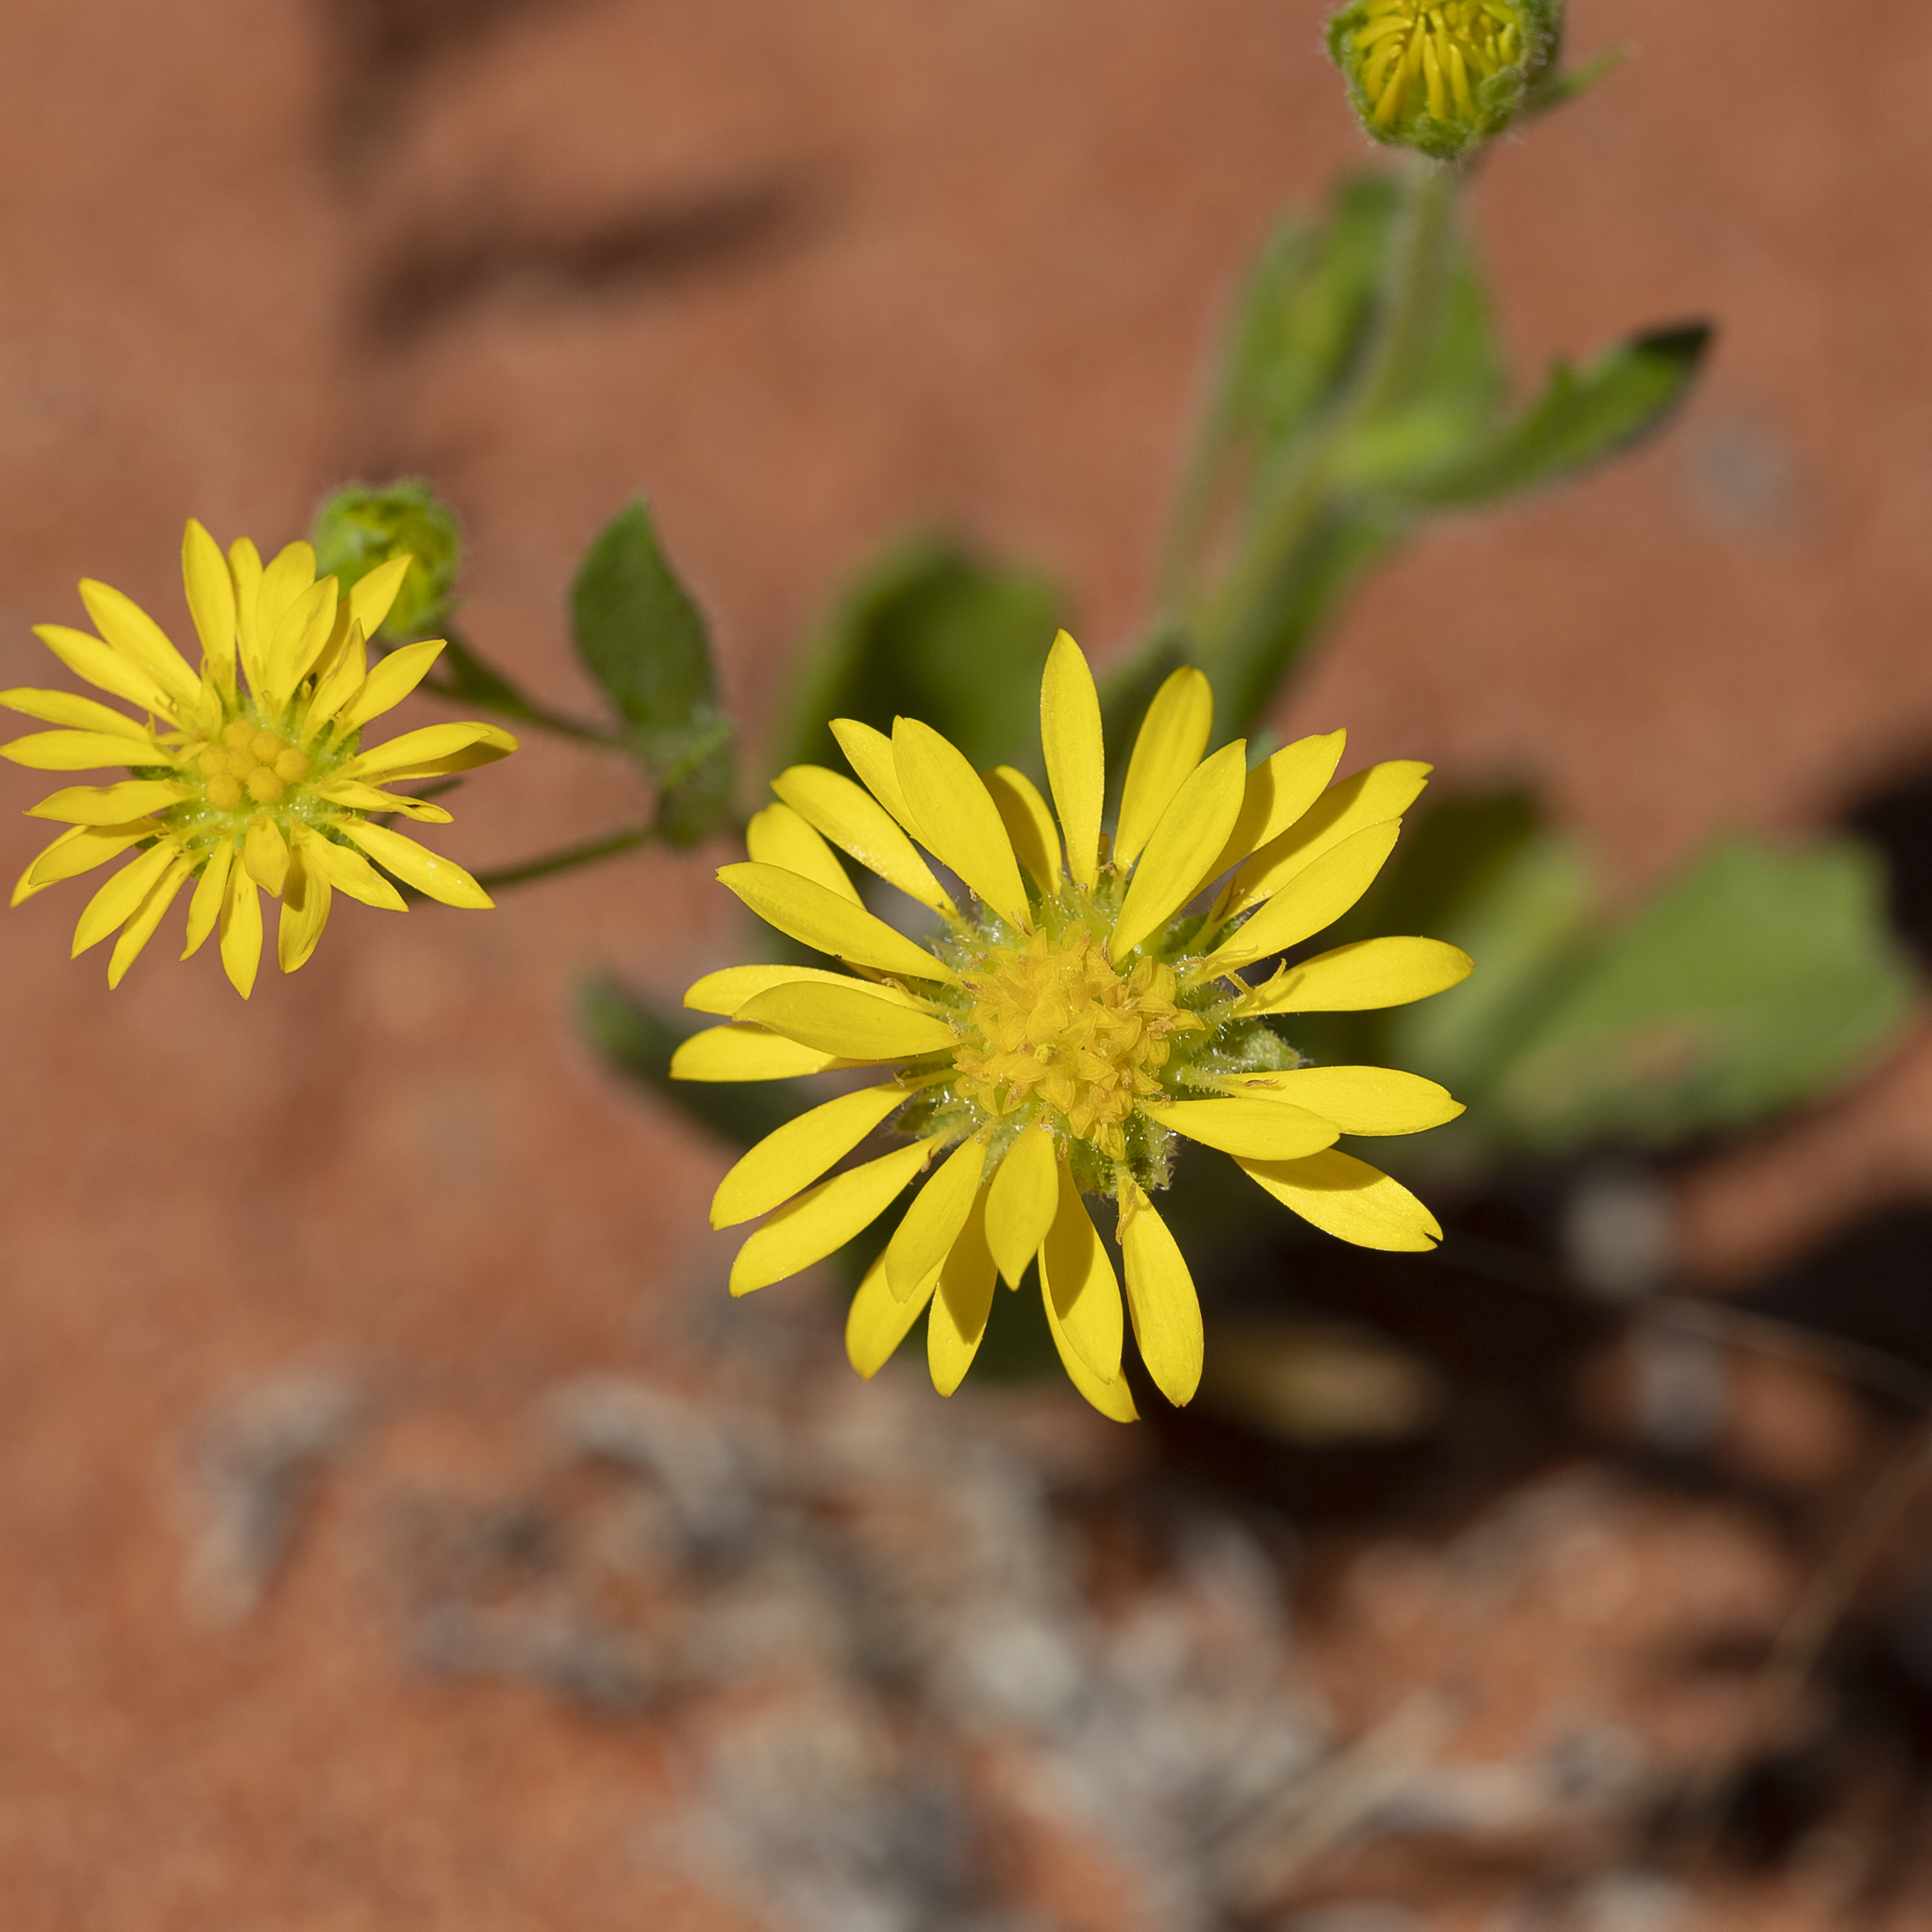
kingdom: Plantae
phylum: Tracheophyta
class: Magnoliopsida
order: Asterales
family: Asteraceae
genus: Calotis
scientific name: Calotis cymbacantha
